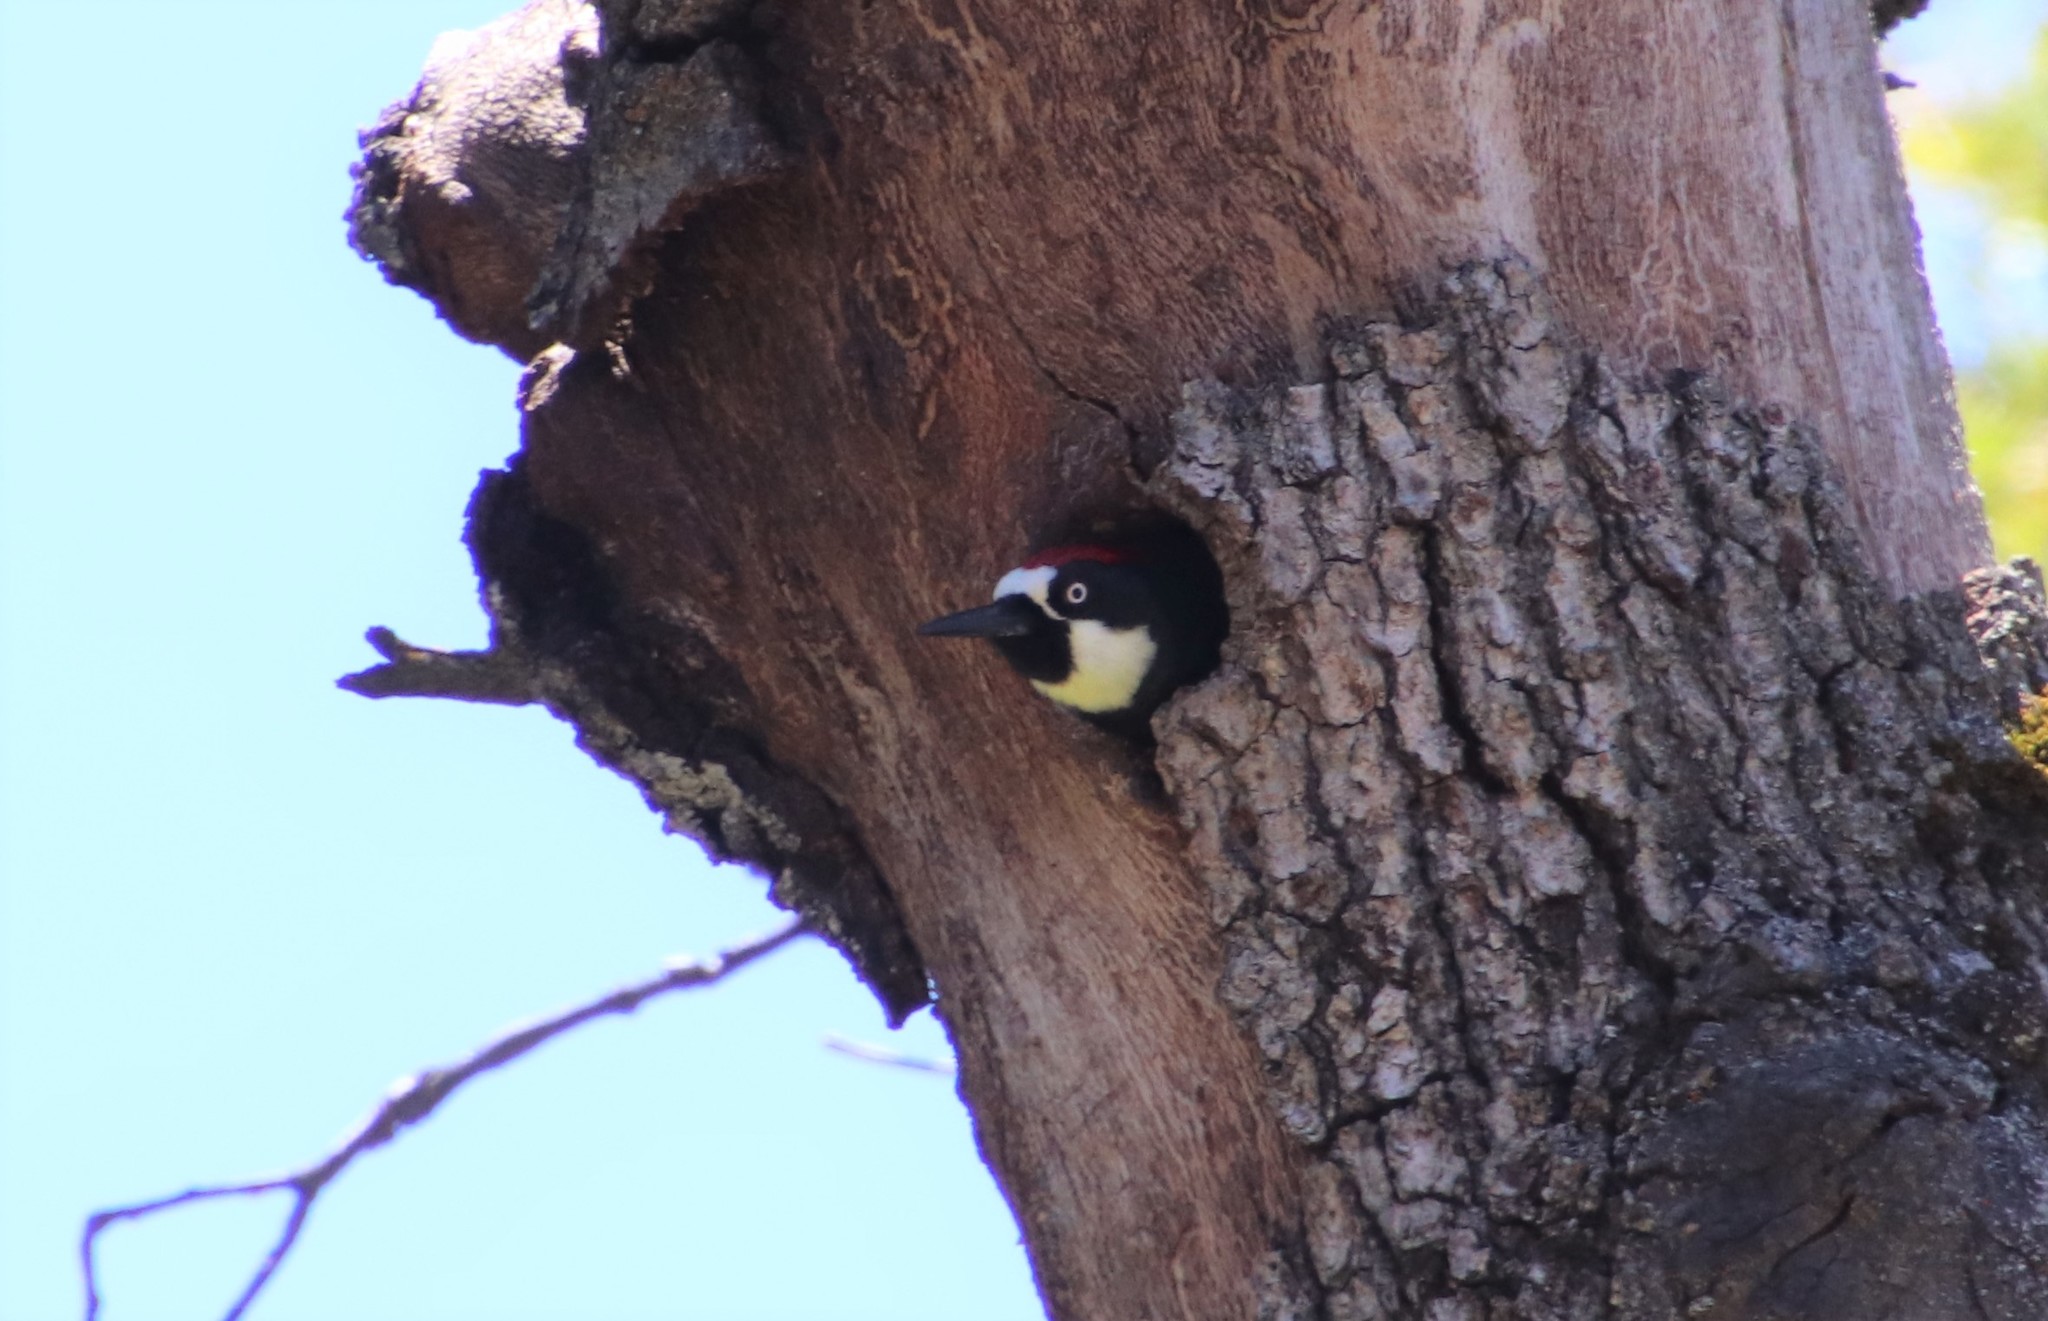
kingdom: Animalia
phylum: Chordata
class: Aves
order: Piciformes
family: Picidae
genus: Melanerpes
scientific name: Melanerpes formicivorus
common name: Acorn woodpecker
